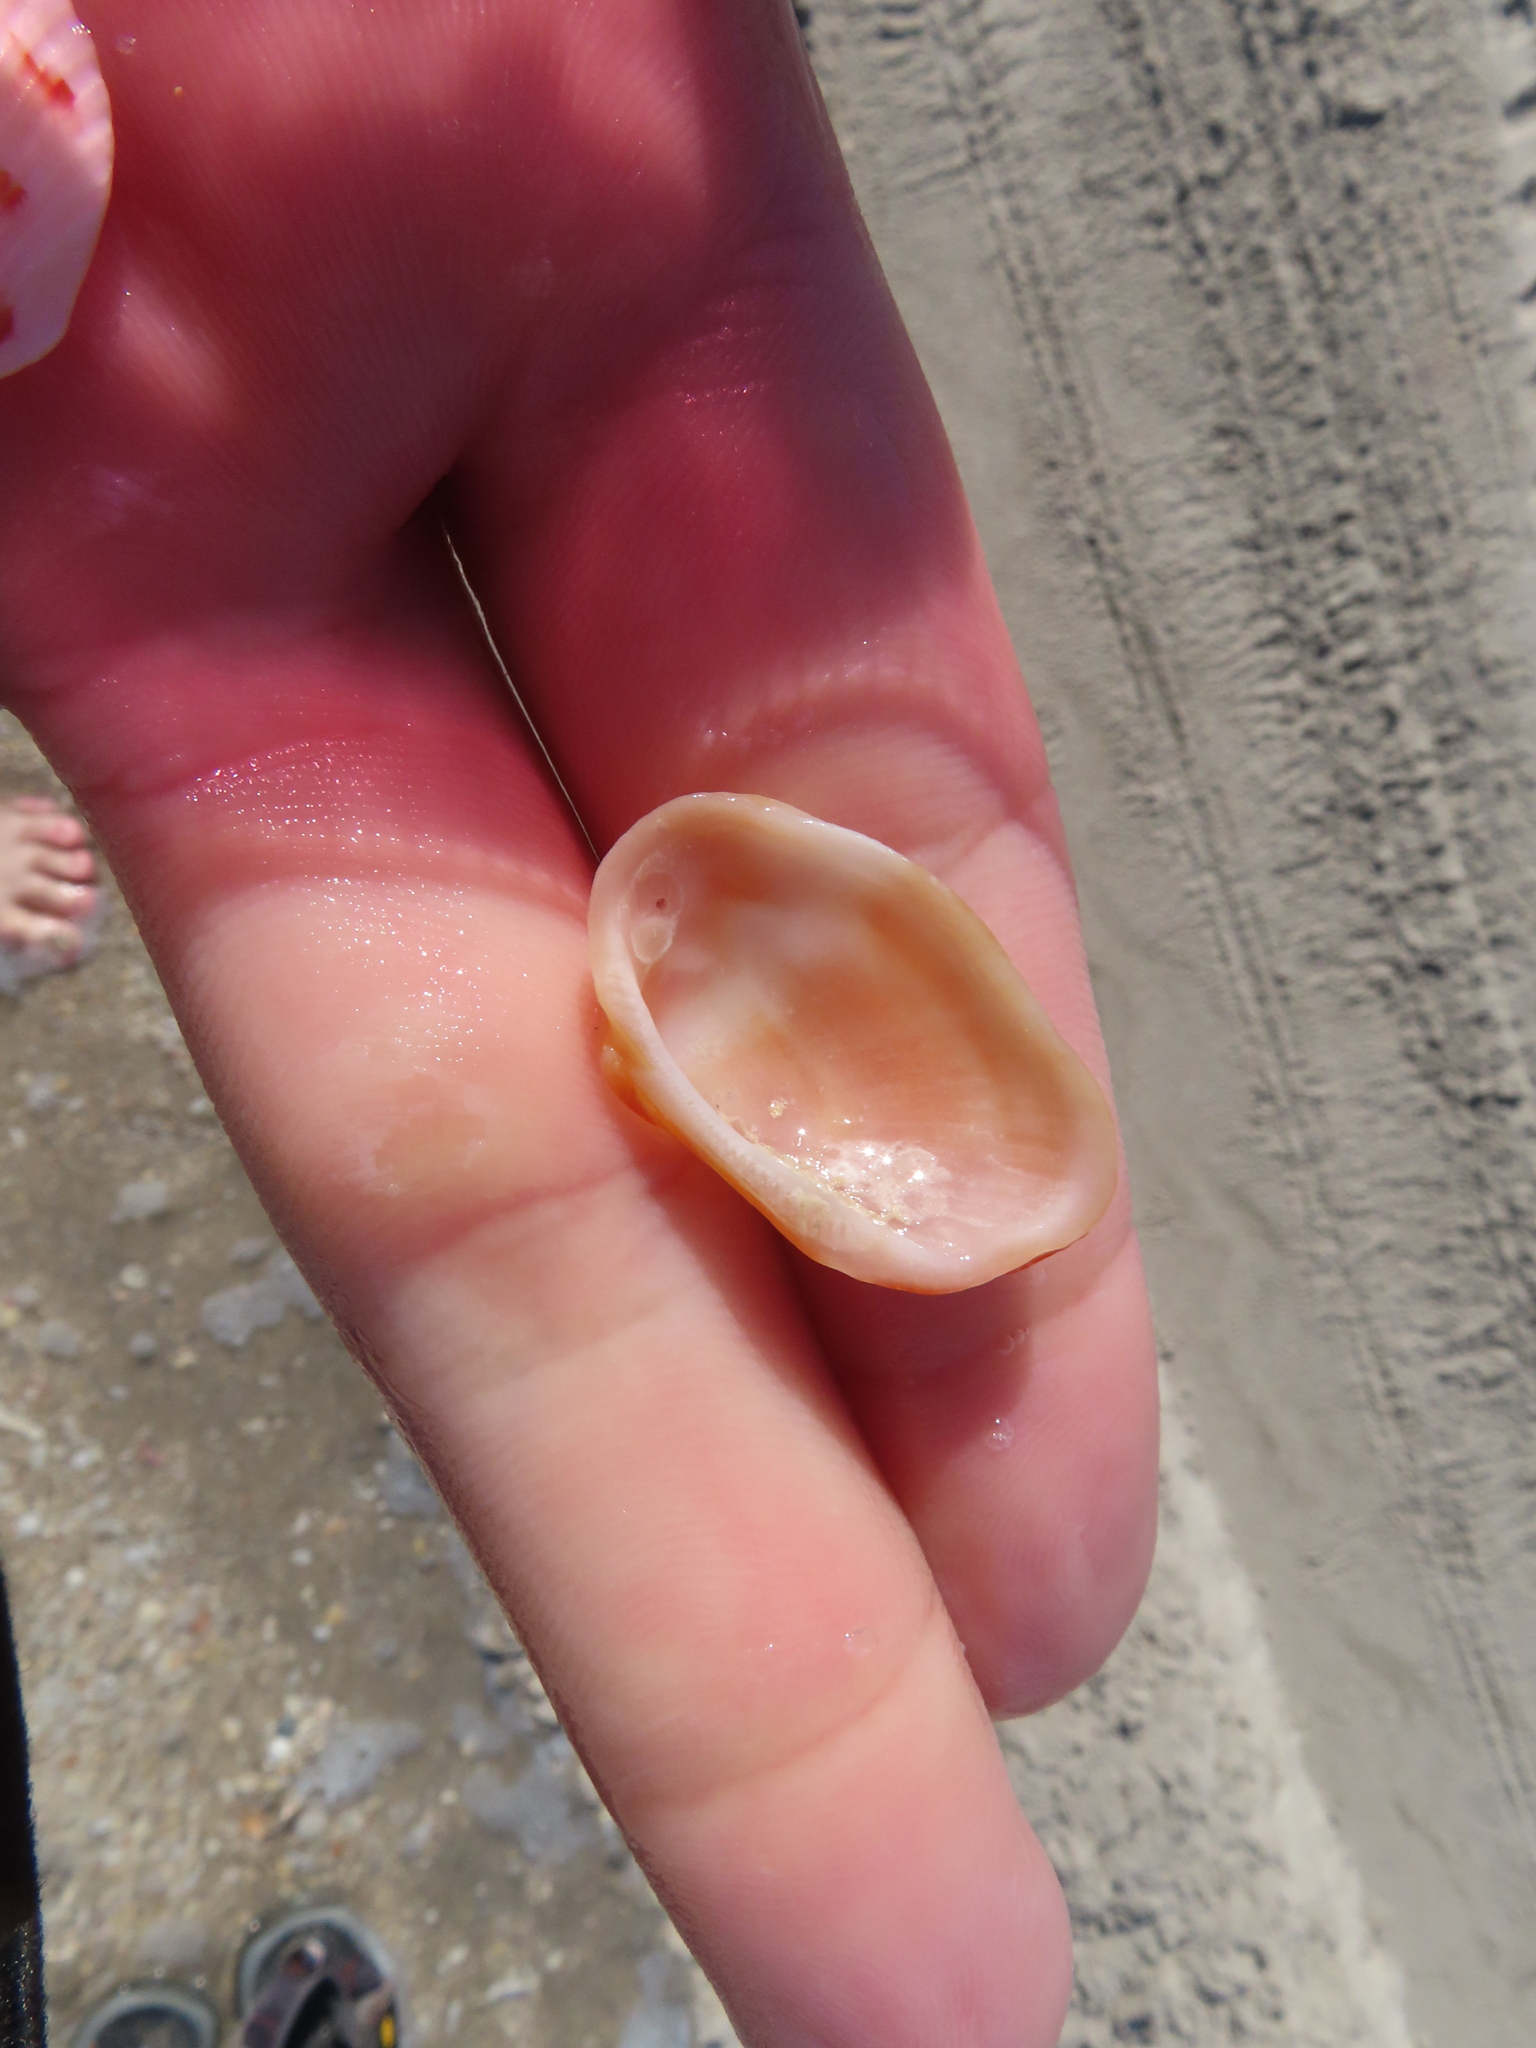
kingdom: Animalia
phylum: Mollusca
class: Bivalvia
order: Arcida
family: Arcidae
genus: Barbatia
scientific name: Barbatia domingensis
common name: White miniature ark
